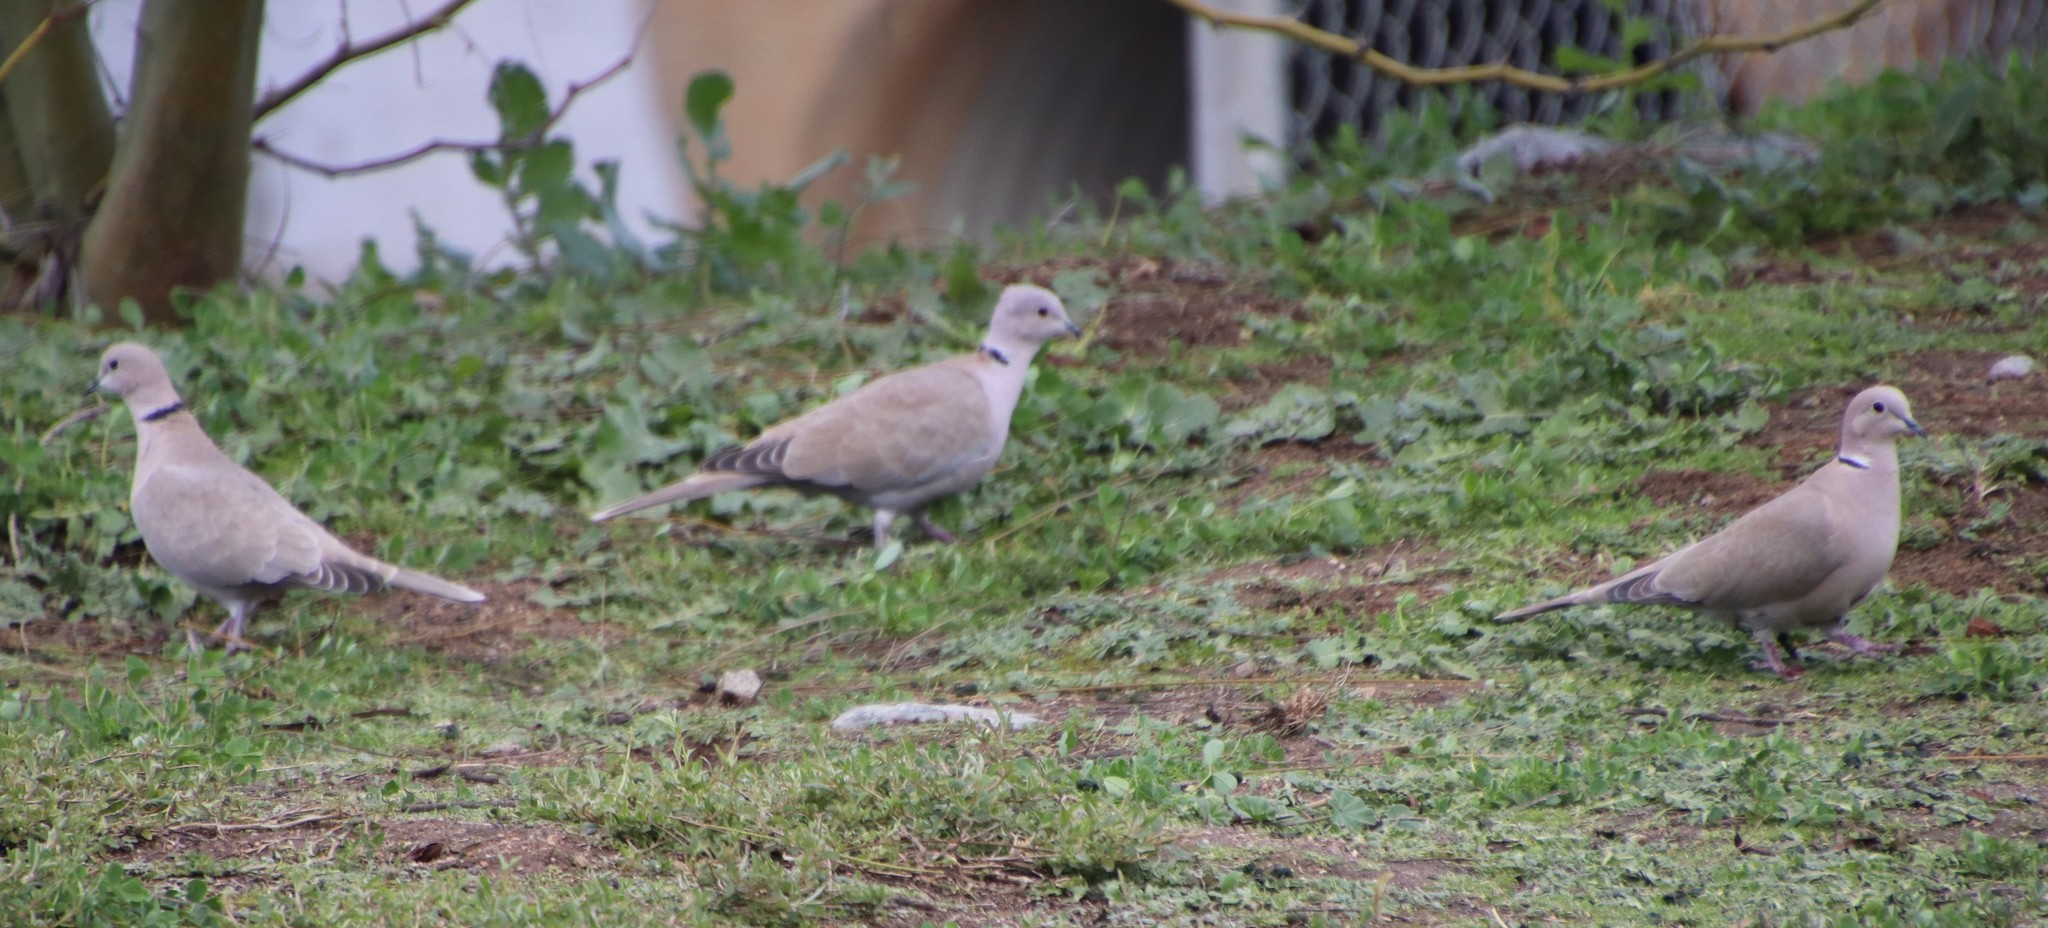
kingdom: Animalia
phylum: Chordata
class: Aves
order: Columbiformes
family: Columbidae
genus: Streptopelia
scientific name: Streptopelia decaocto
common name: Eurasian collared dove
